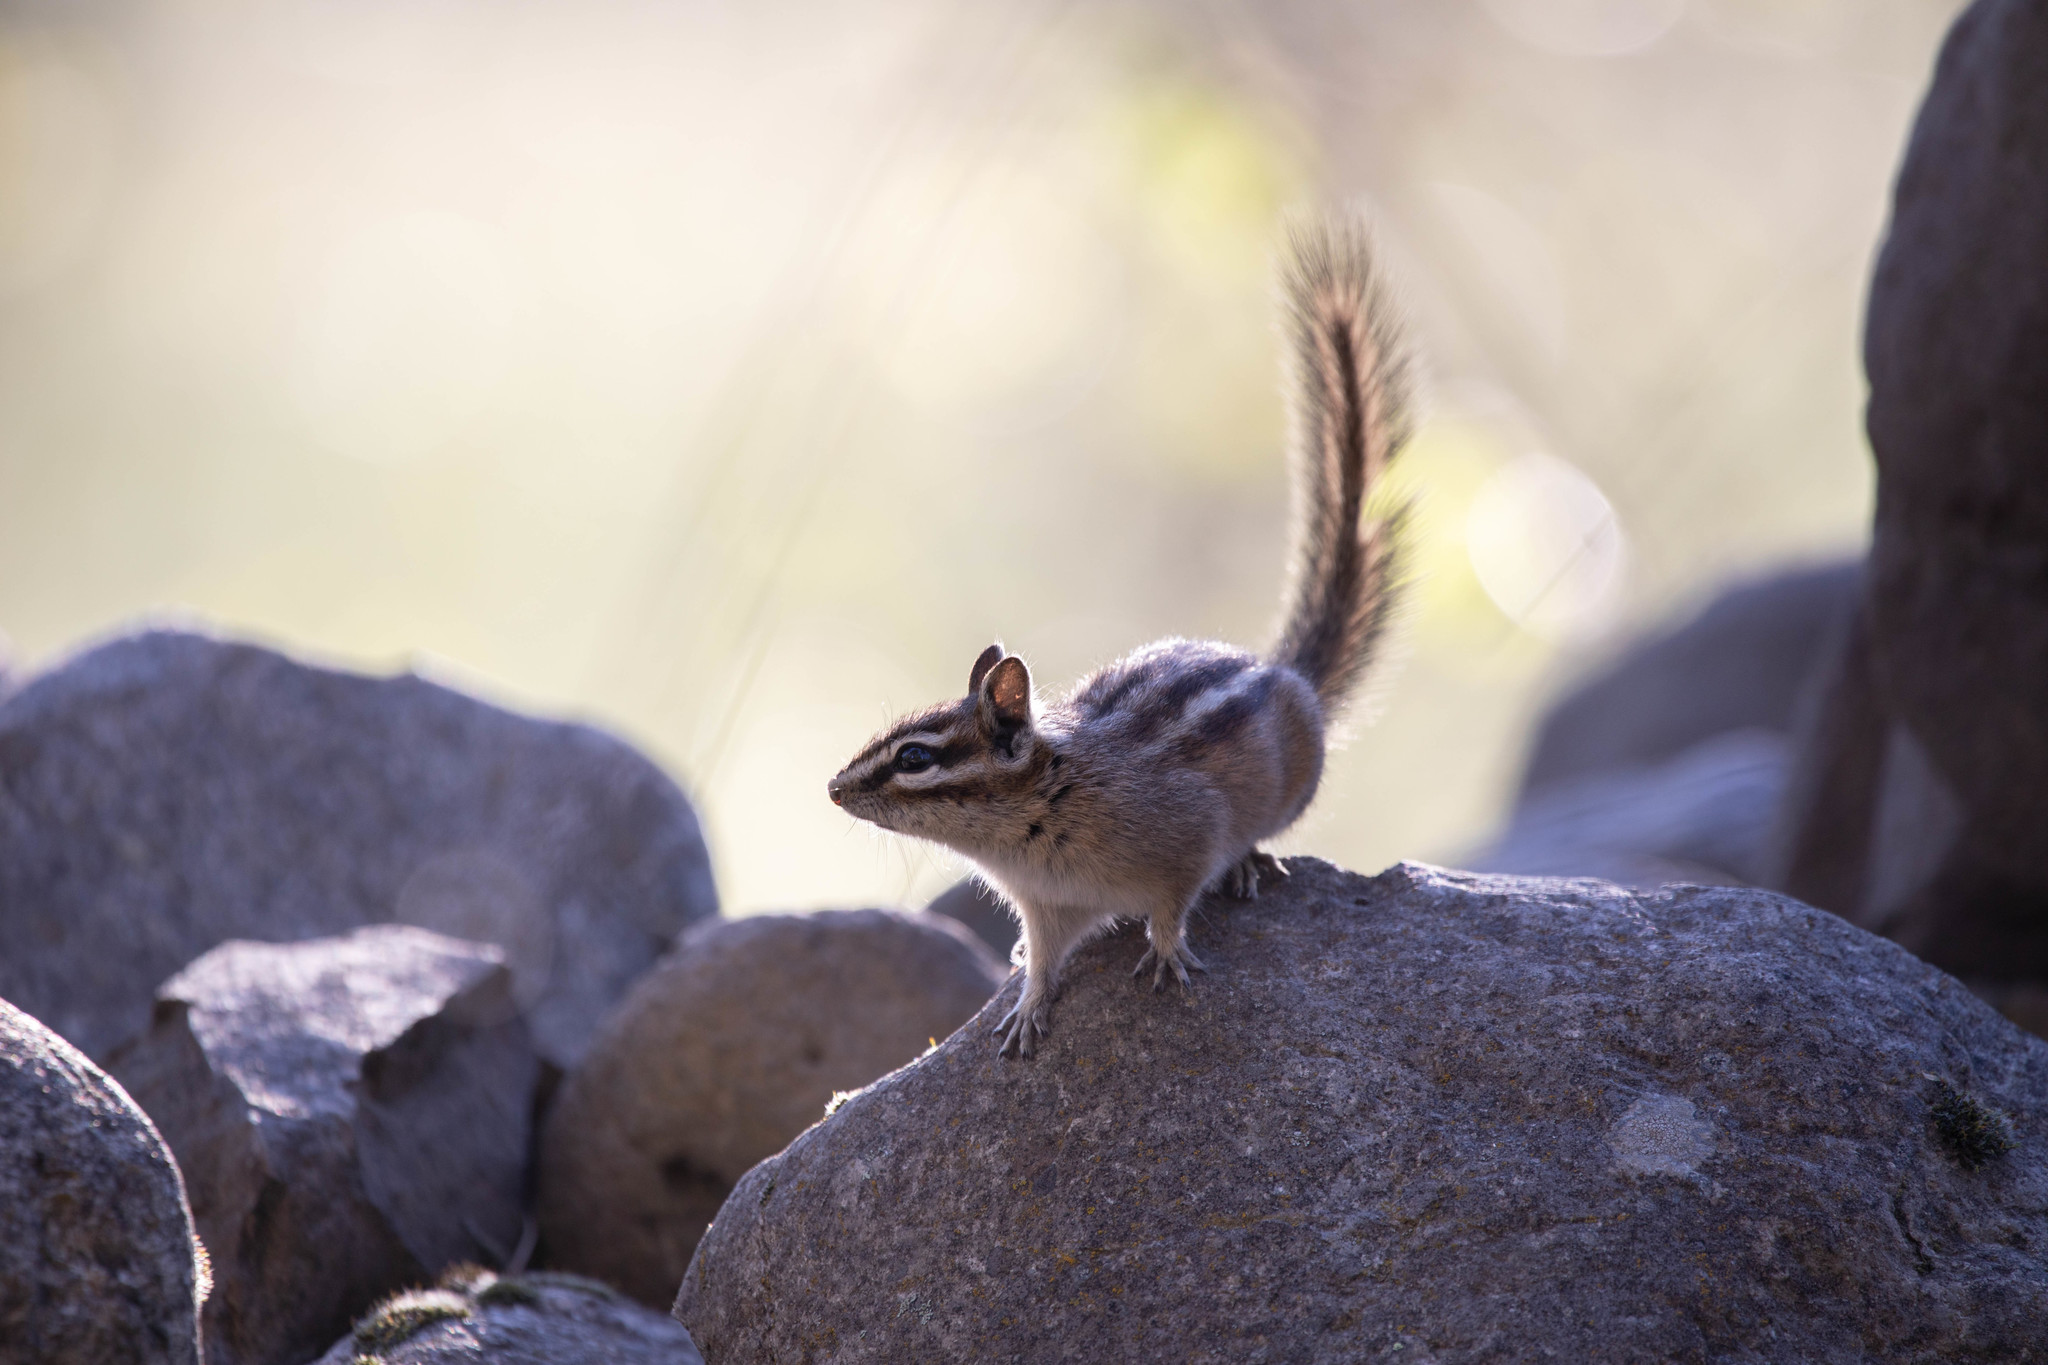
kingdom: Animalia
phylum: Chordata
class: Mammalia
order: Rodentia
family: Sciuridae
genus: Tamias
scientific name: Tamias amoenus
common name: Yellow-pine chipmunk
